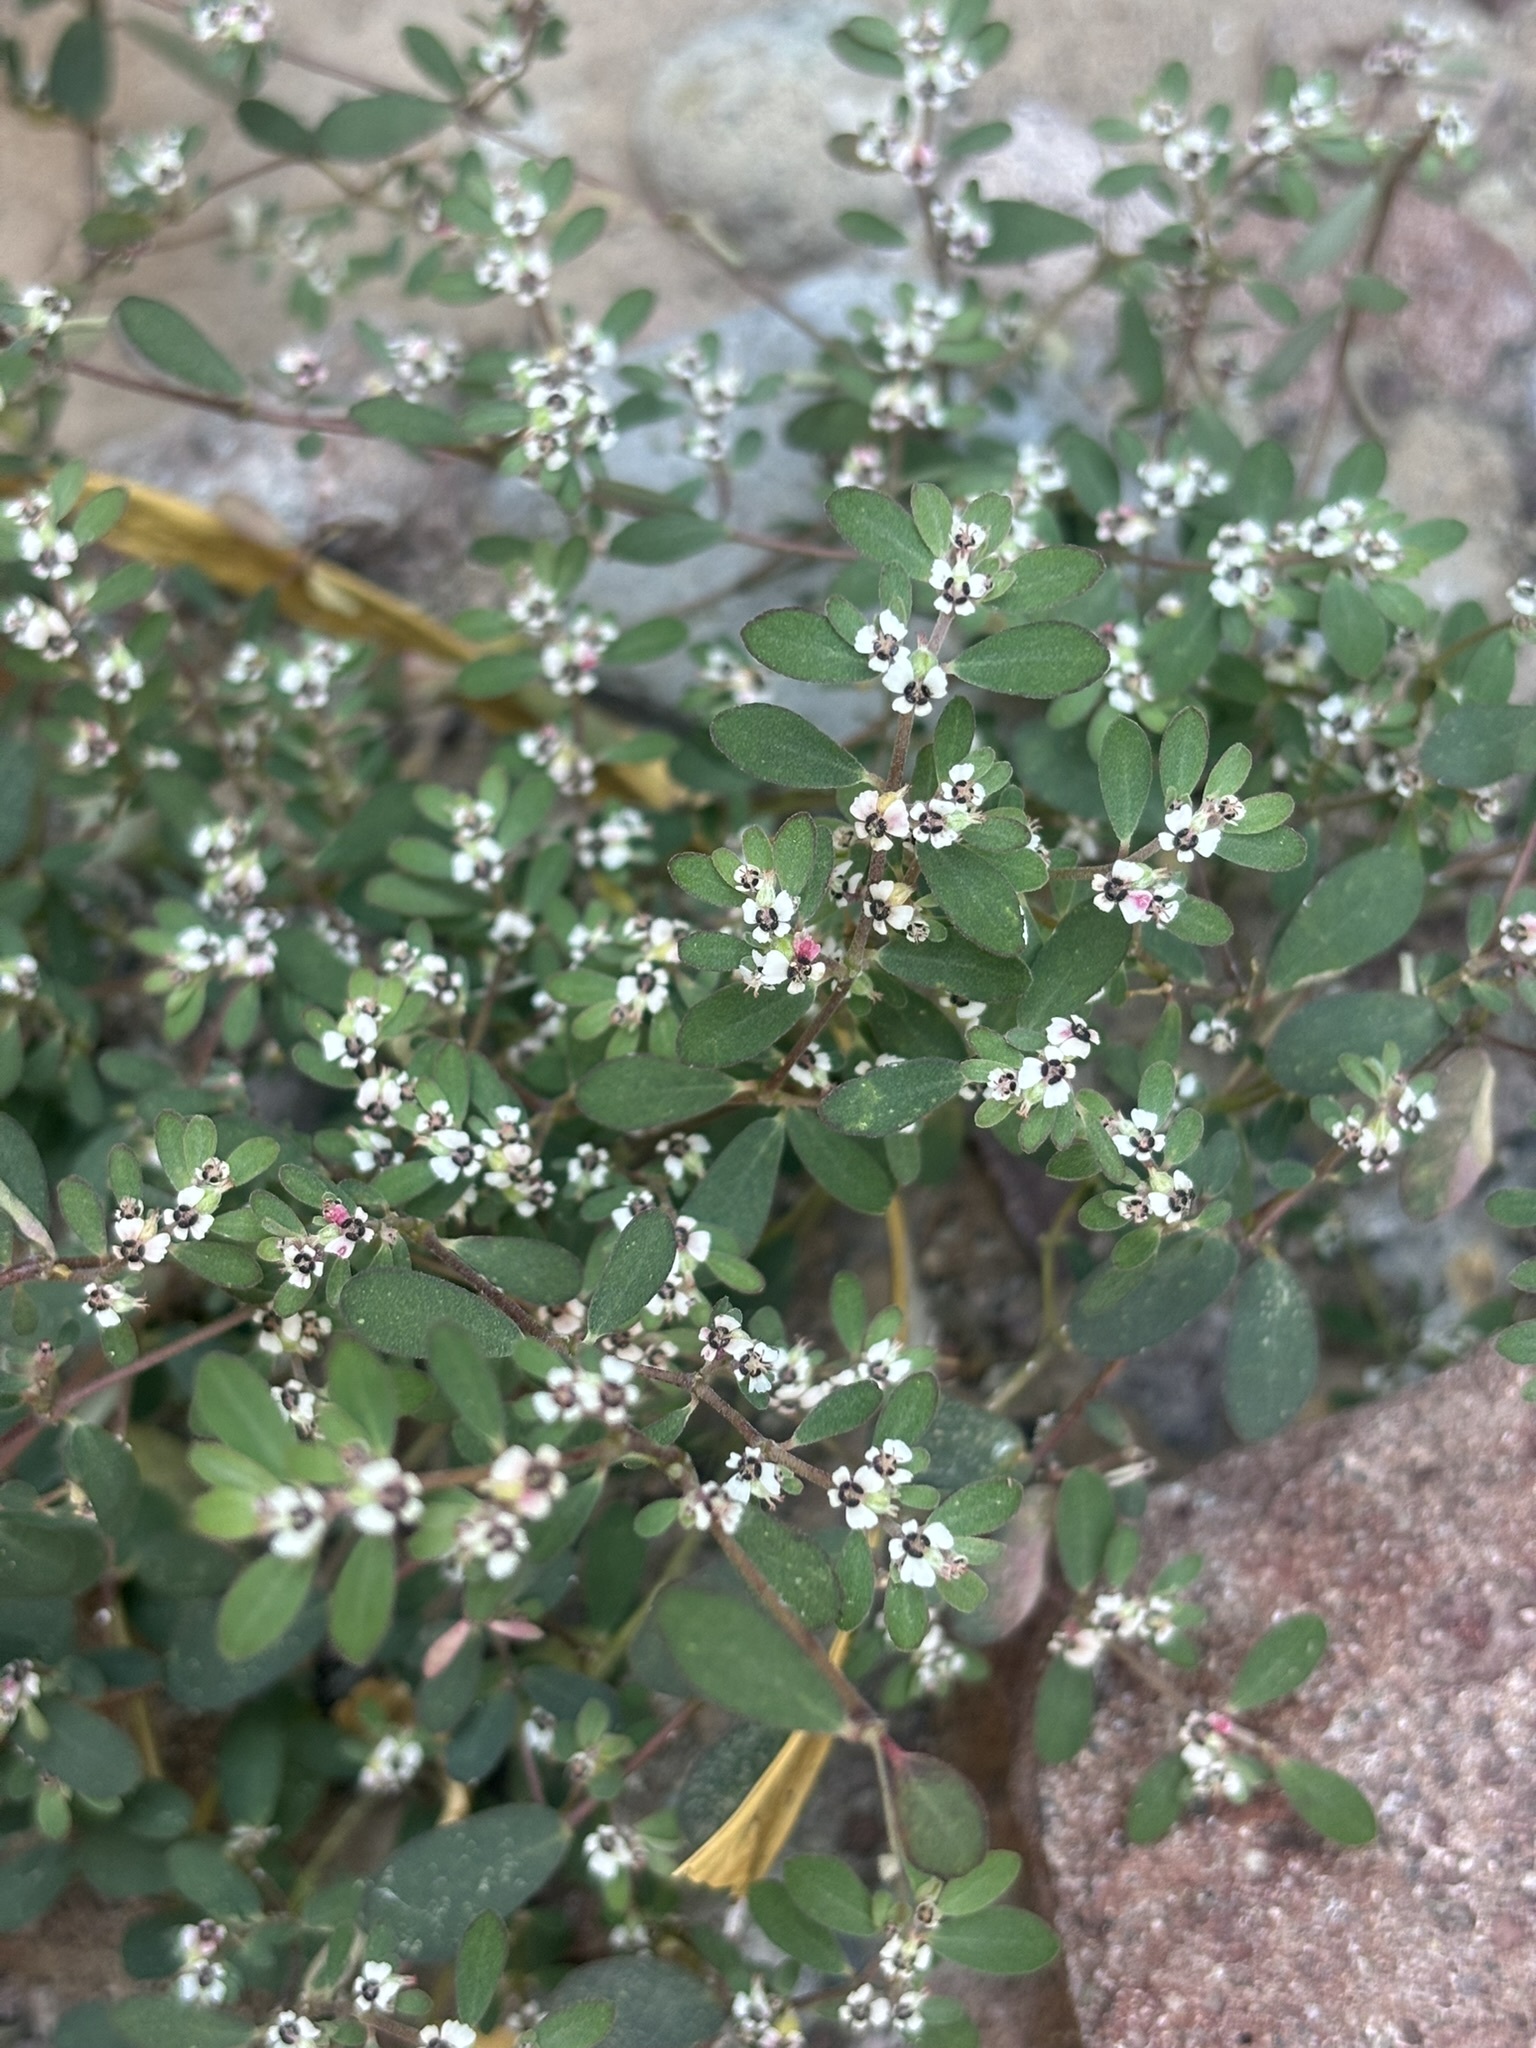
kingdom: Plantae
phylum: Tracheophyta
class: Magnoliopsida
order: Malpighiales
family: Euphorbiaceae
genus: Euphorbia
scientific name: Euphorbia pediculifera
